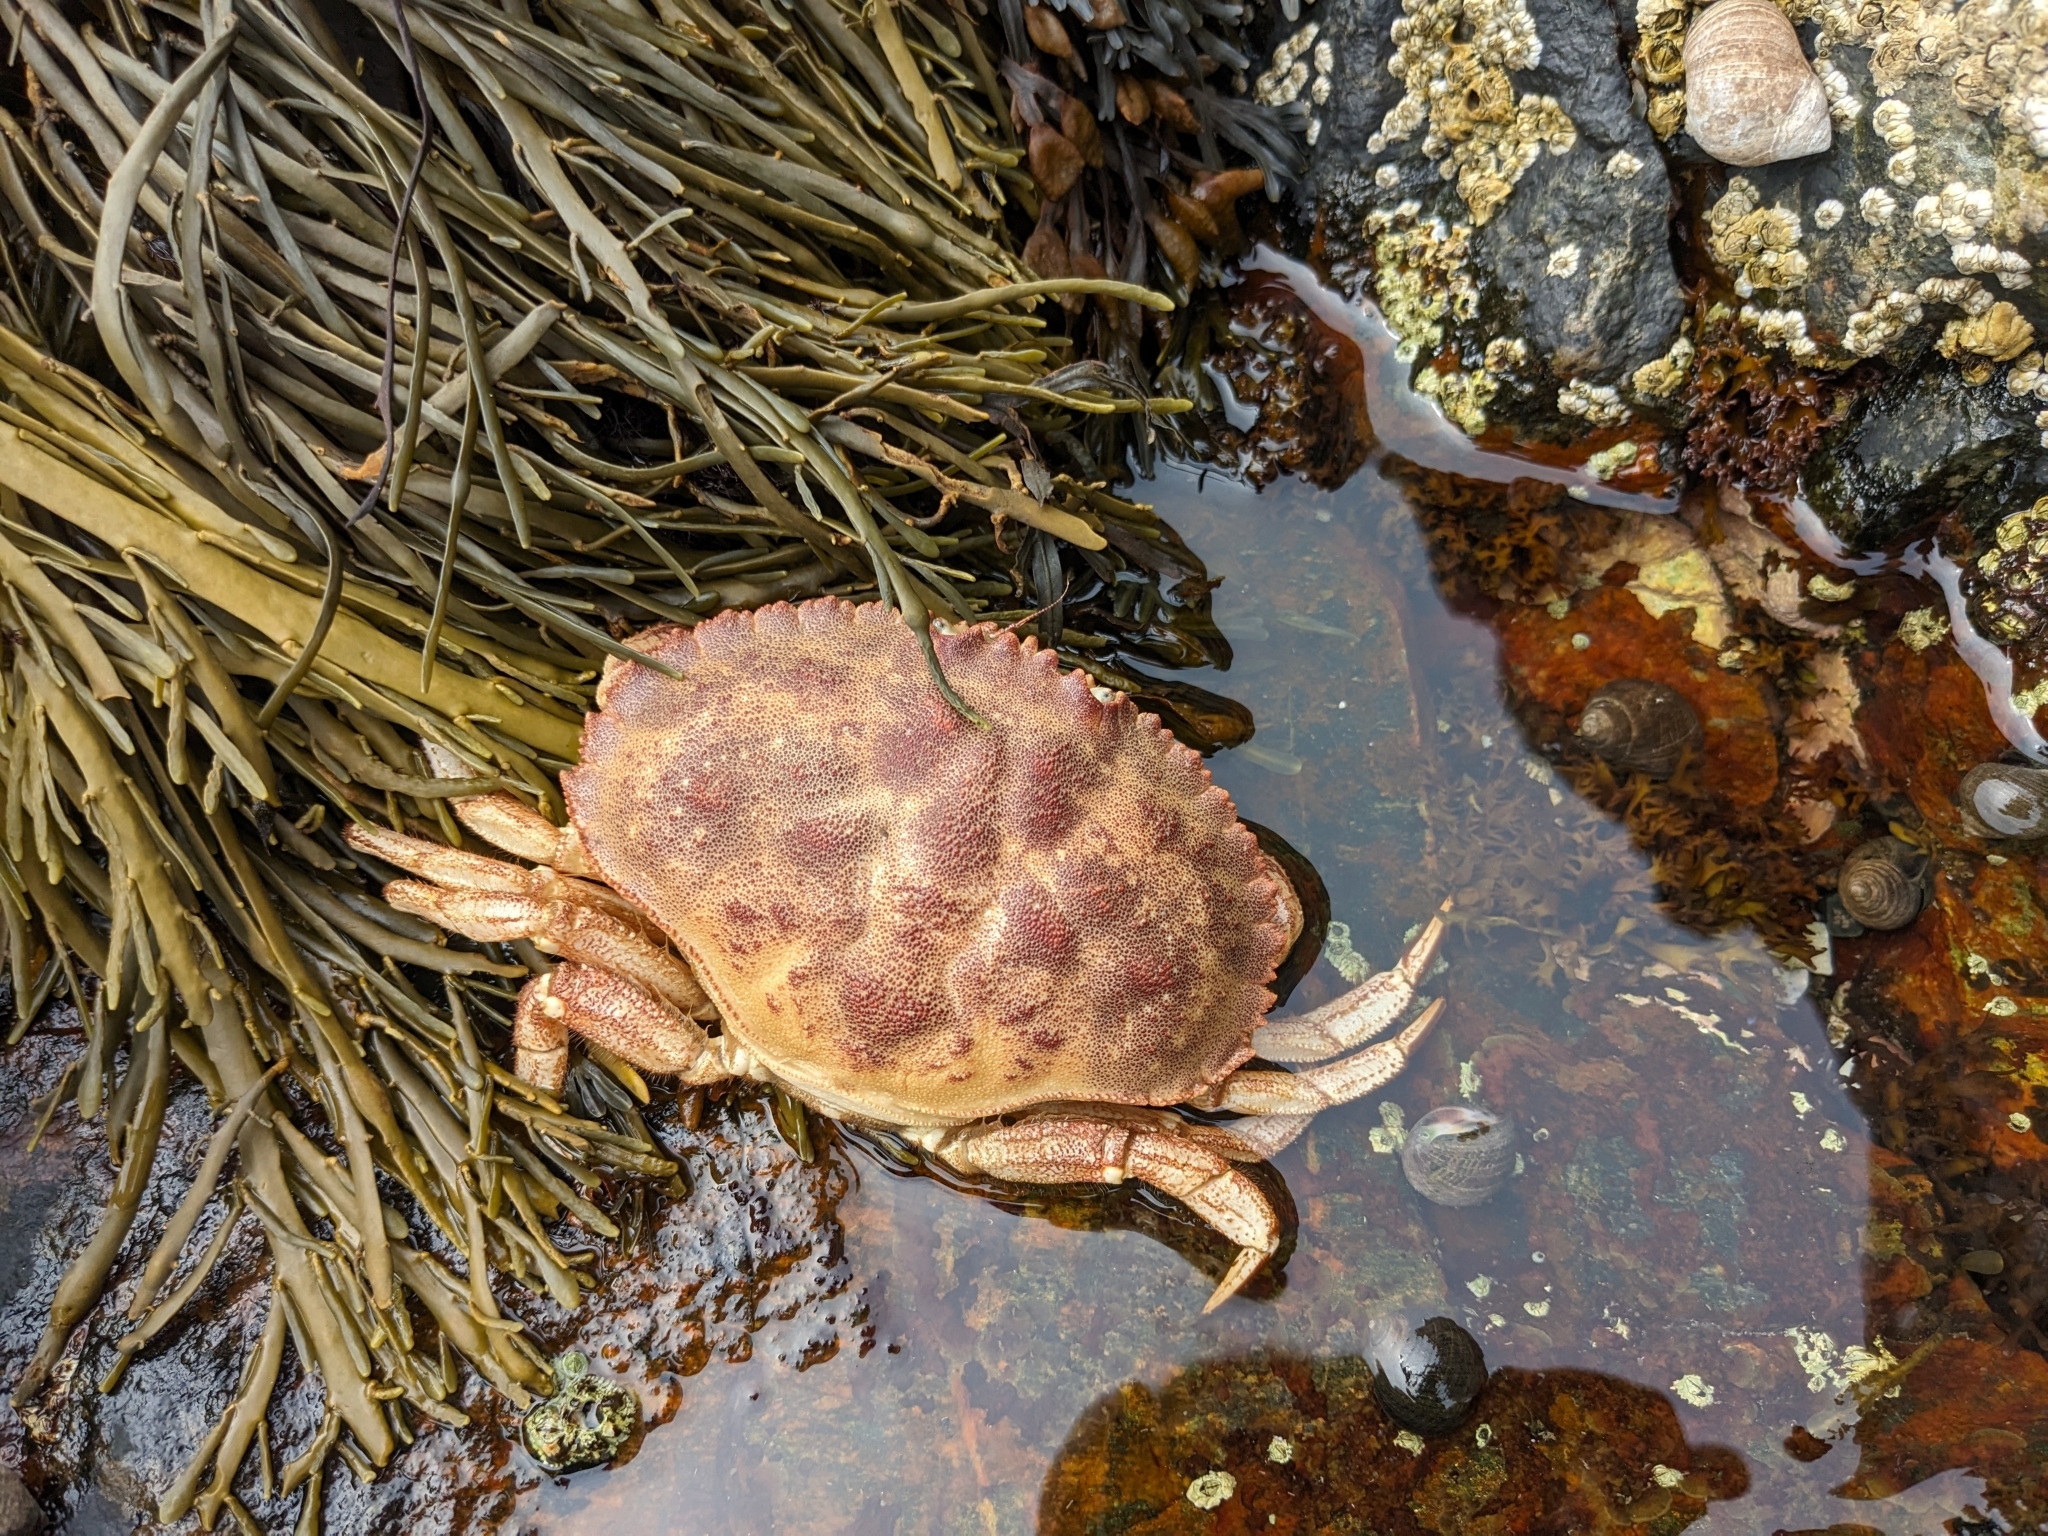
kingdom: Animalia
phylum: Arthropoda
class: Malacostraca
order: Decapoda
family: Cancridae
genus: Cancer
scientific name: Cancer borealis
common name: Jonah crab
